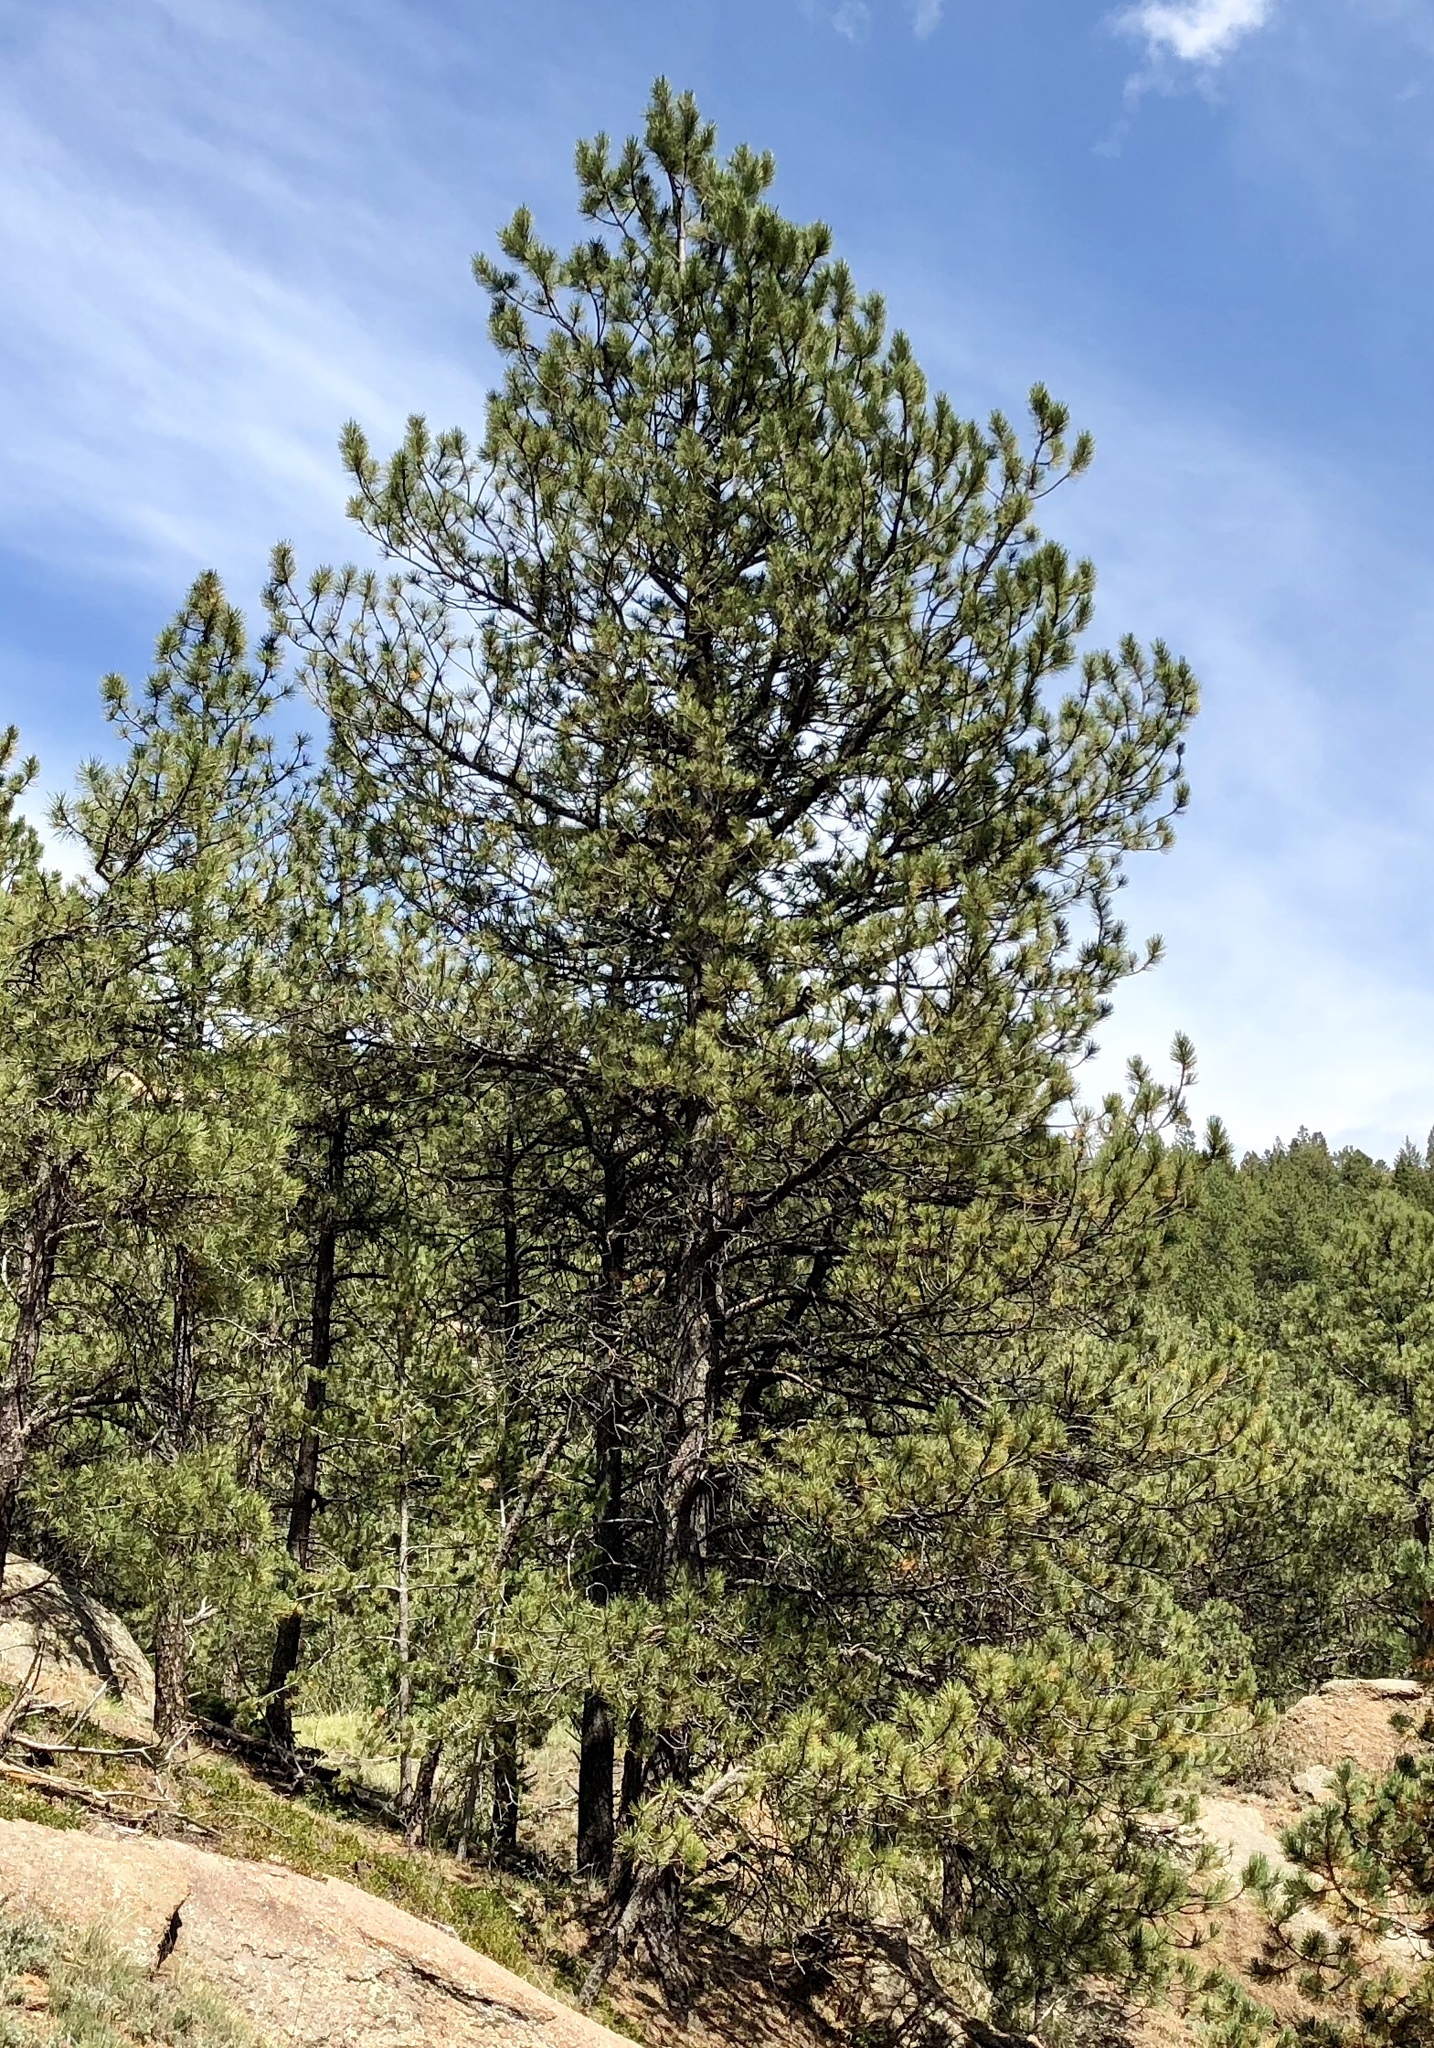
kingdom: Plantae
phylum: Tracheophyta
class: Pinopsida
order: Pinales
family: Pinaceae
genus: Pinus
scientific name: Pinus ponderosa
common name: Western yellow-pine
